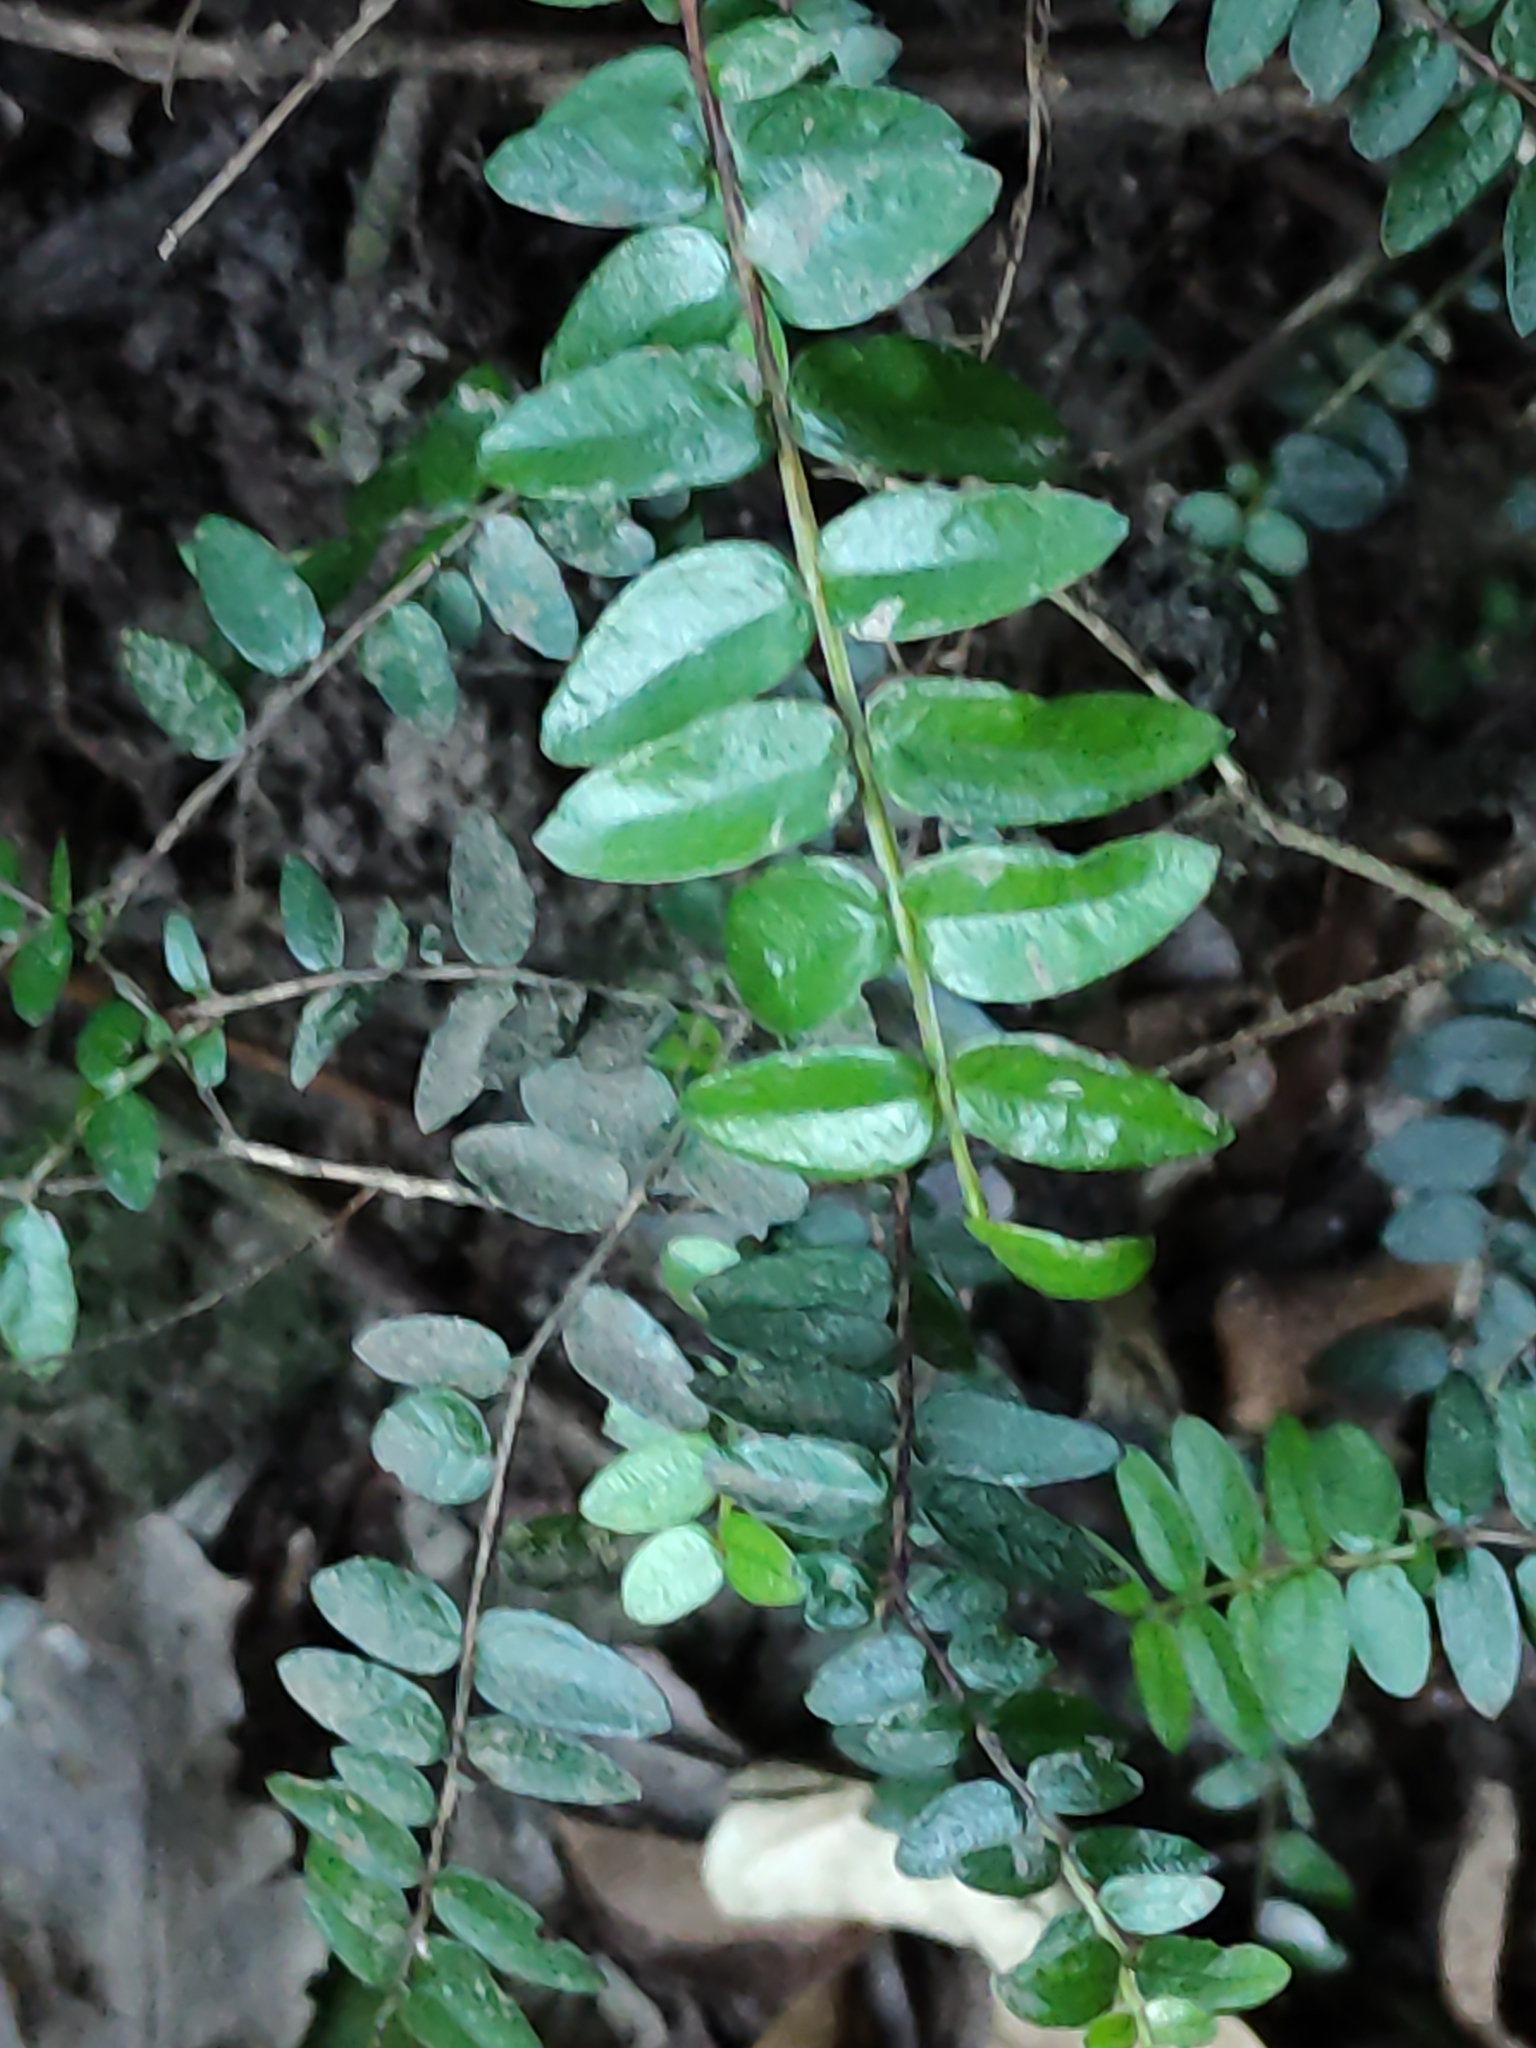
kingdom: Plantae
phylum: Tracheophyta
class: Magnoliopsida
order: Myrtales
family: Myrtaceae
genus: Metrosideros
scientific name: Metrosideros diffusa
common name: Small ratavine
